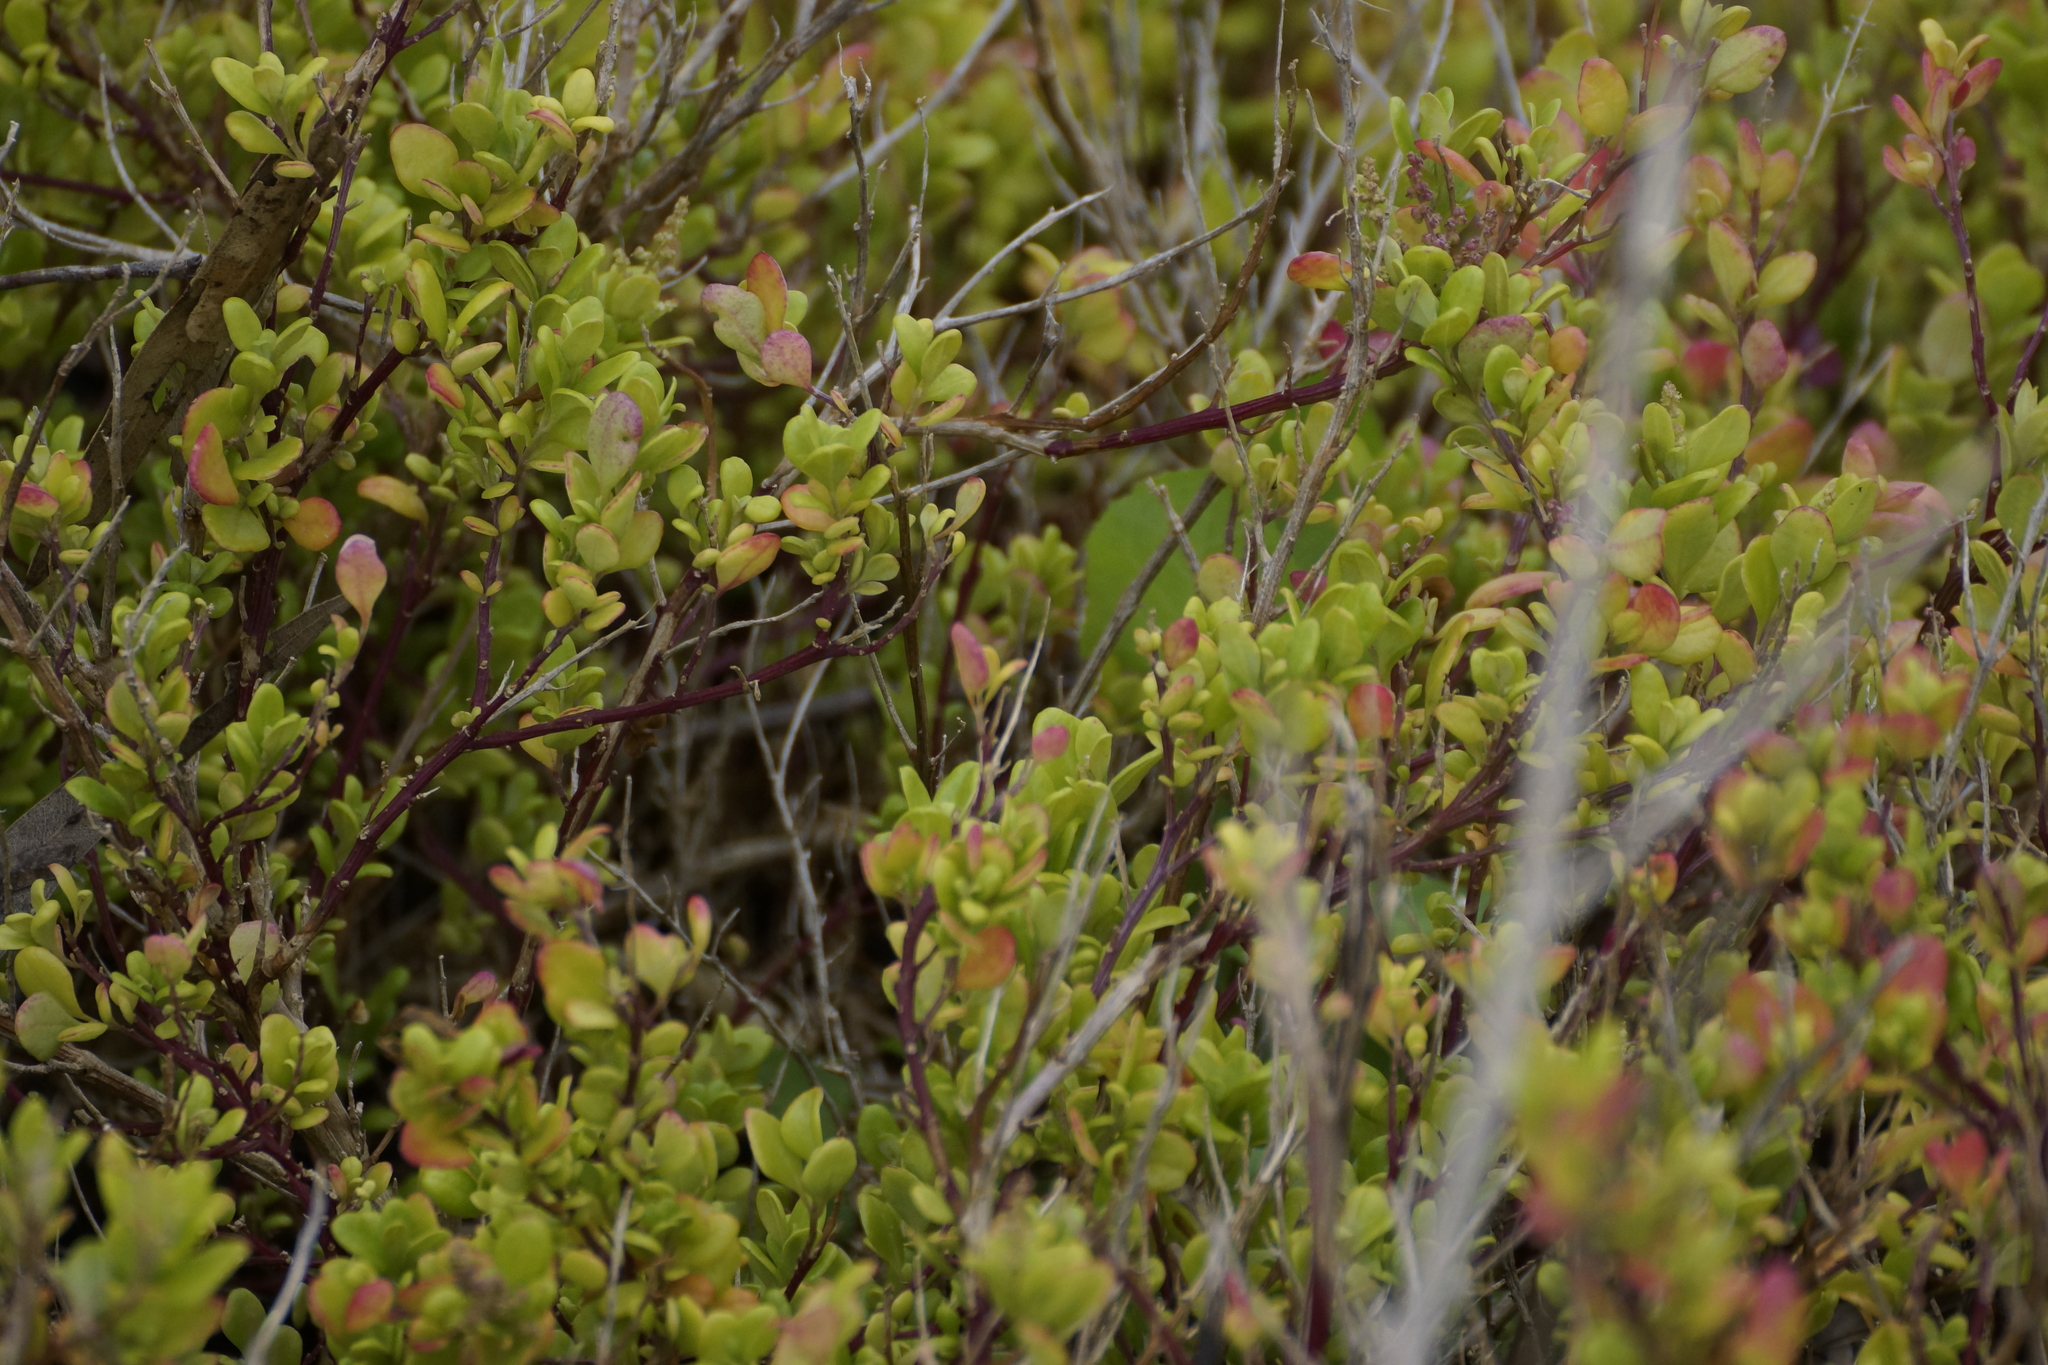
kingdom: Plantae
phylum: Tracheophyta
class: Magnoliopsida
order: Caryophyllales
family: Amaranthaceae
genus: Chenopodium
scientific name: Chenopodium candolleanum
